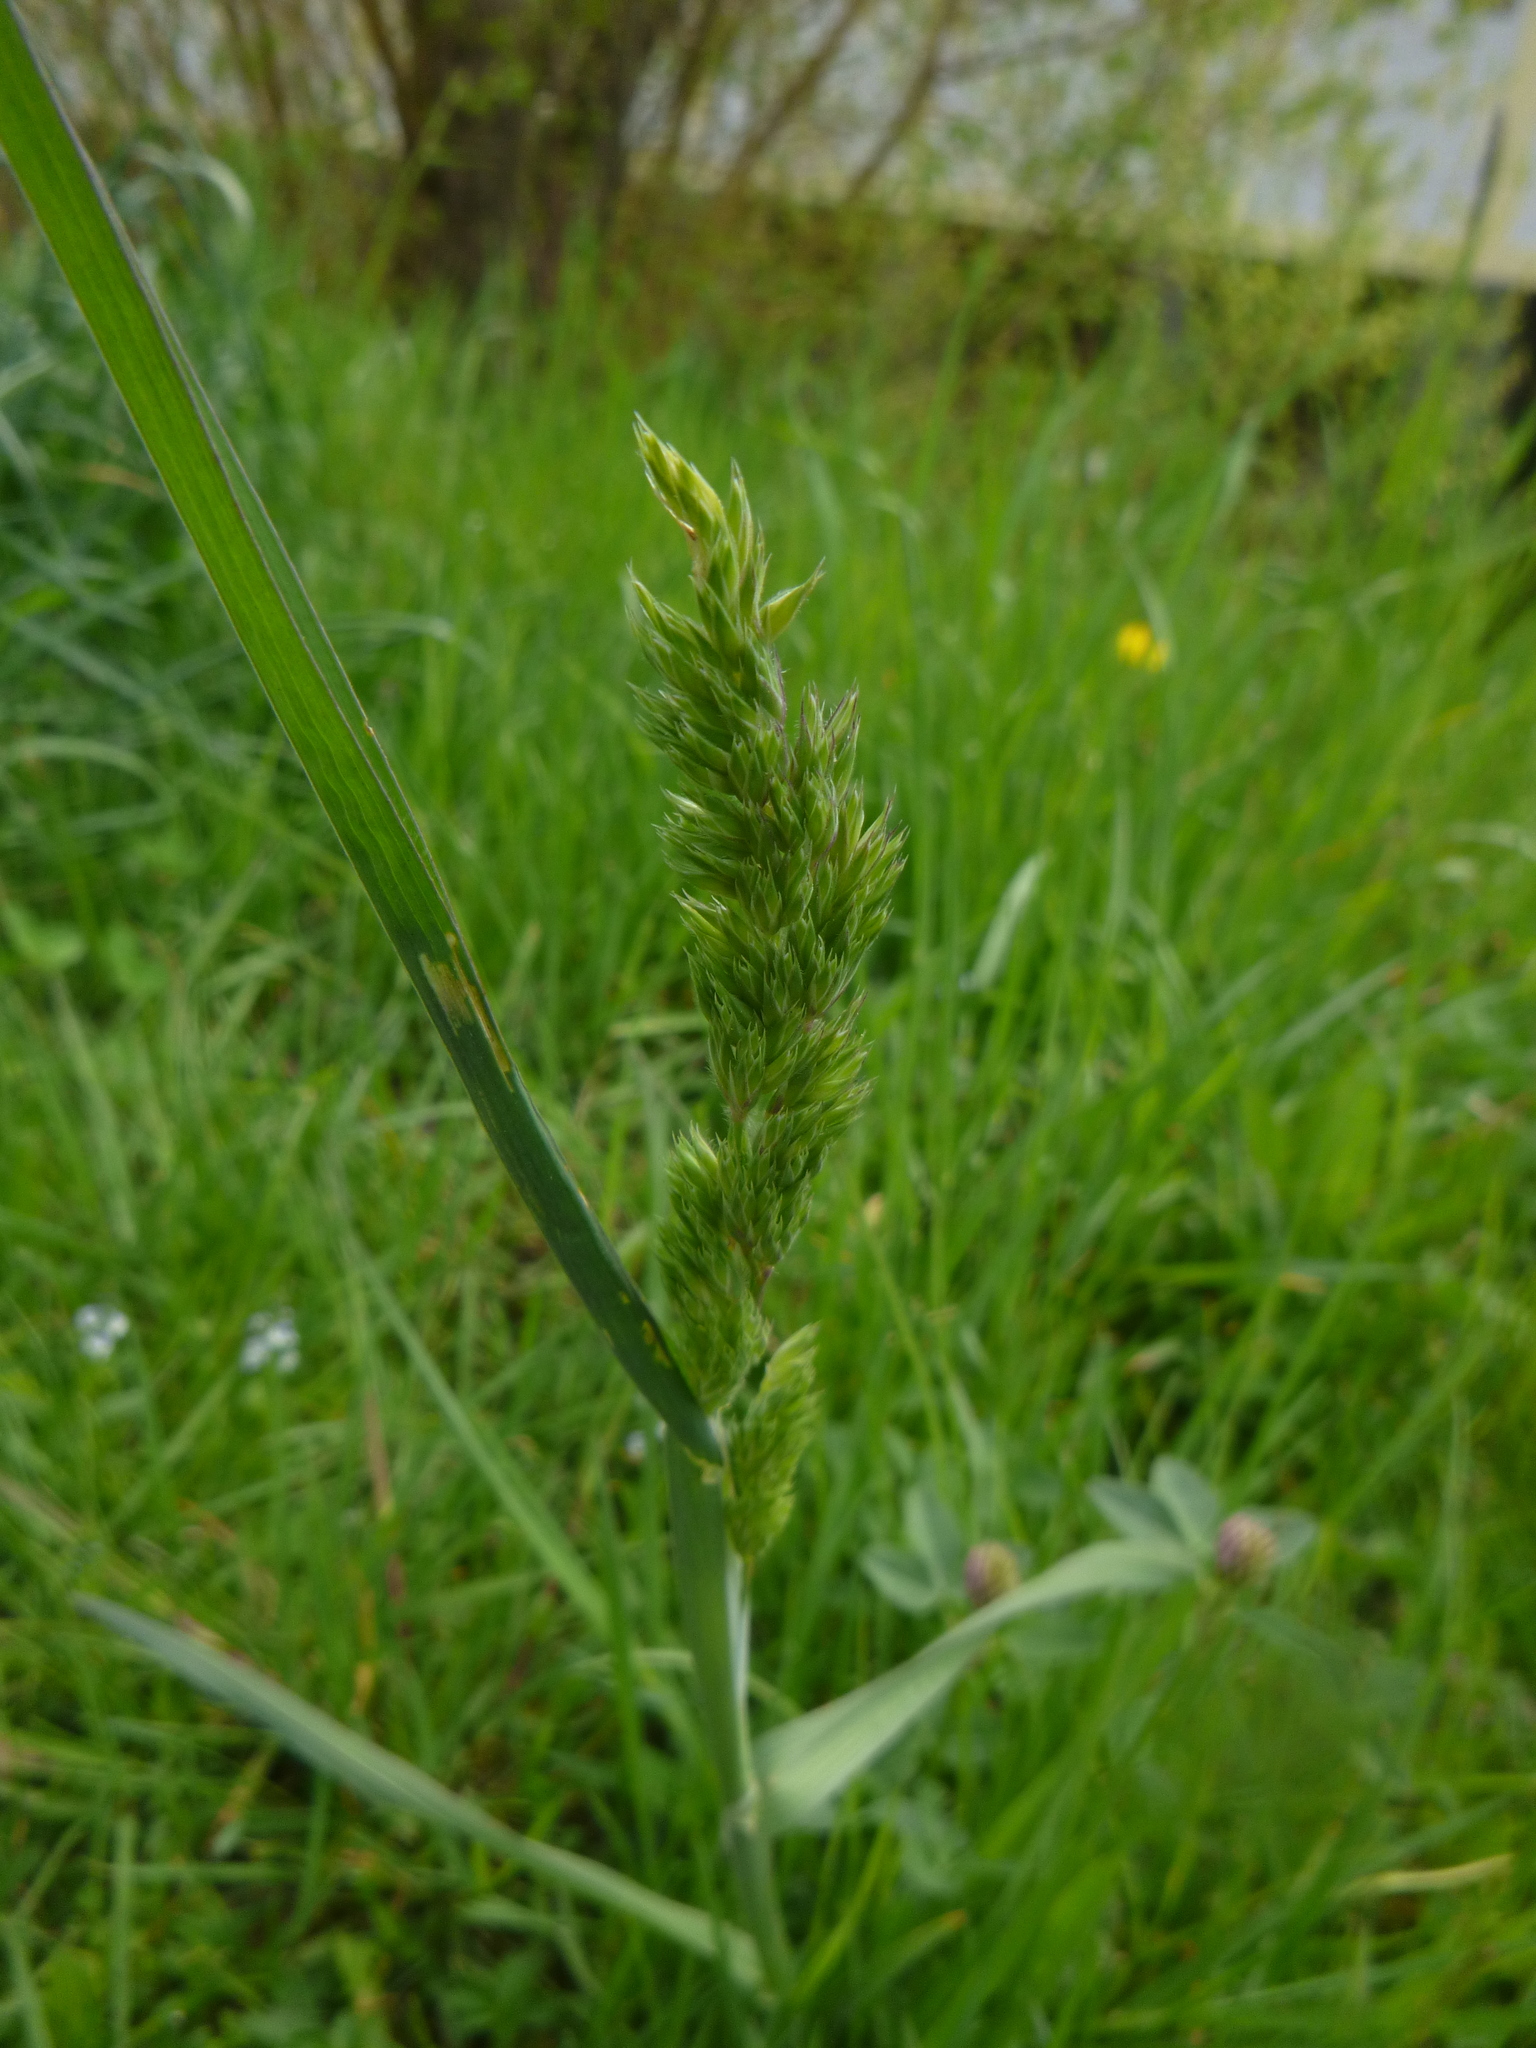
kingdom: Plantae
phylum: Tracheophyta
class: Liliopsida
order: Poales
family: Poaceae
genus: Dactylis
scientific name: Dactylis glomerata
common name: Orchardgrass
